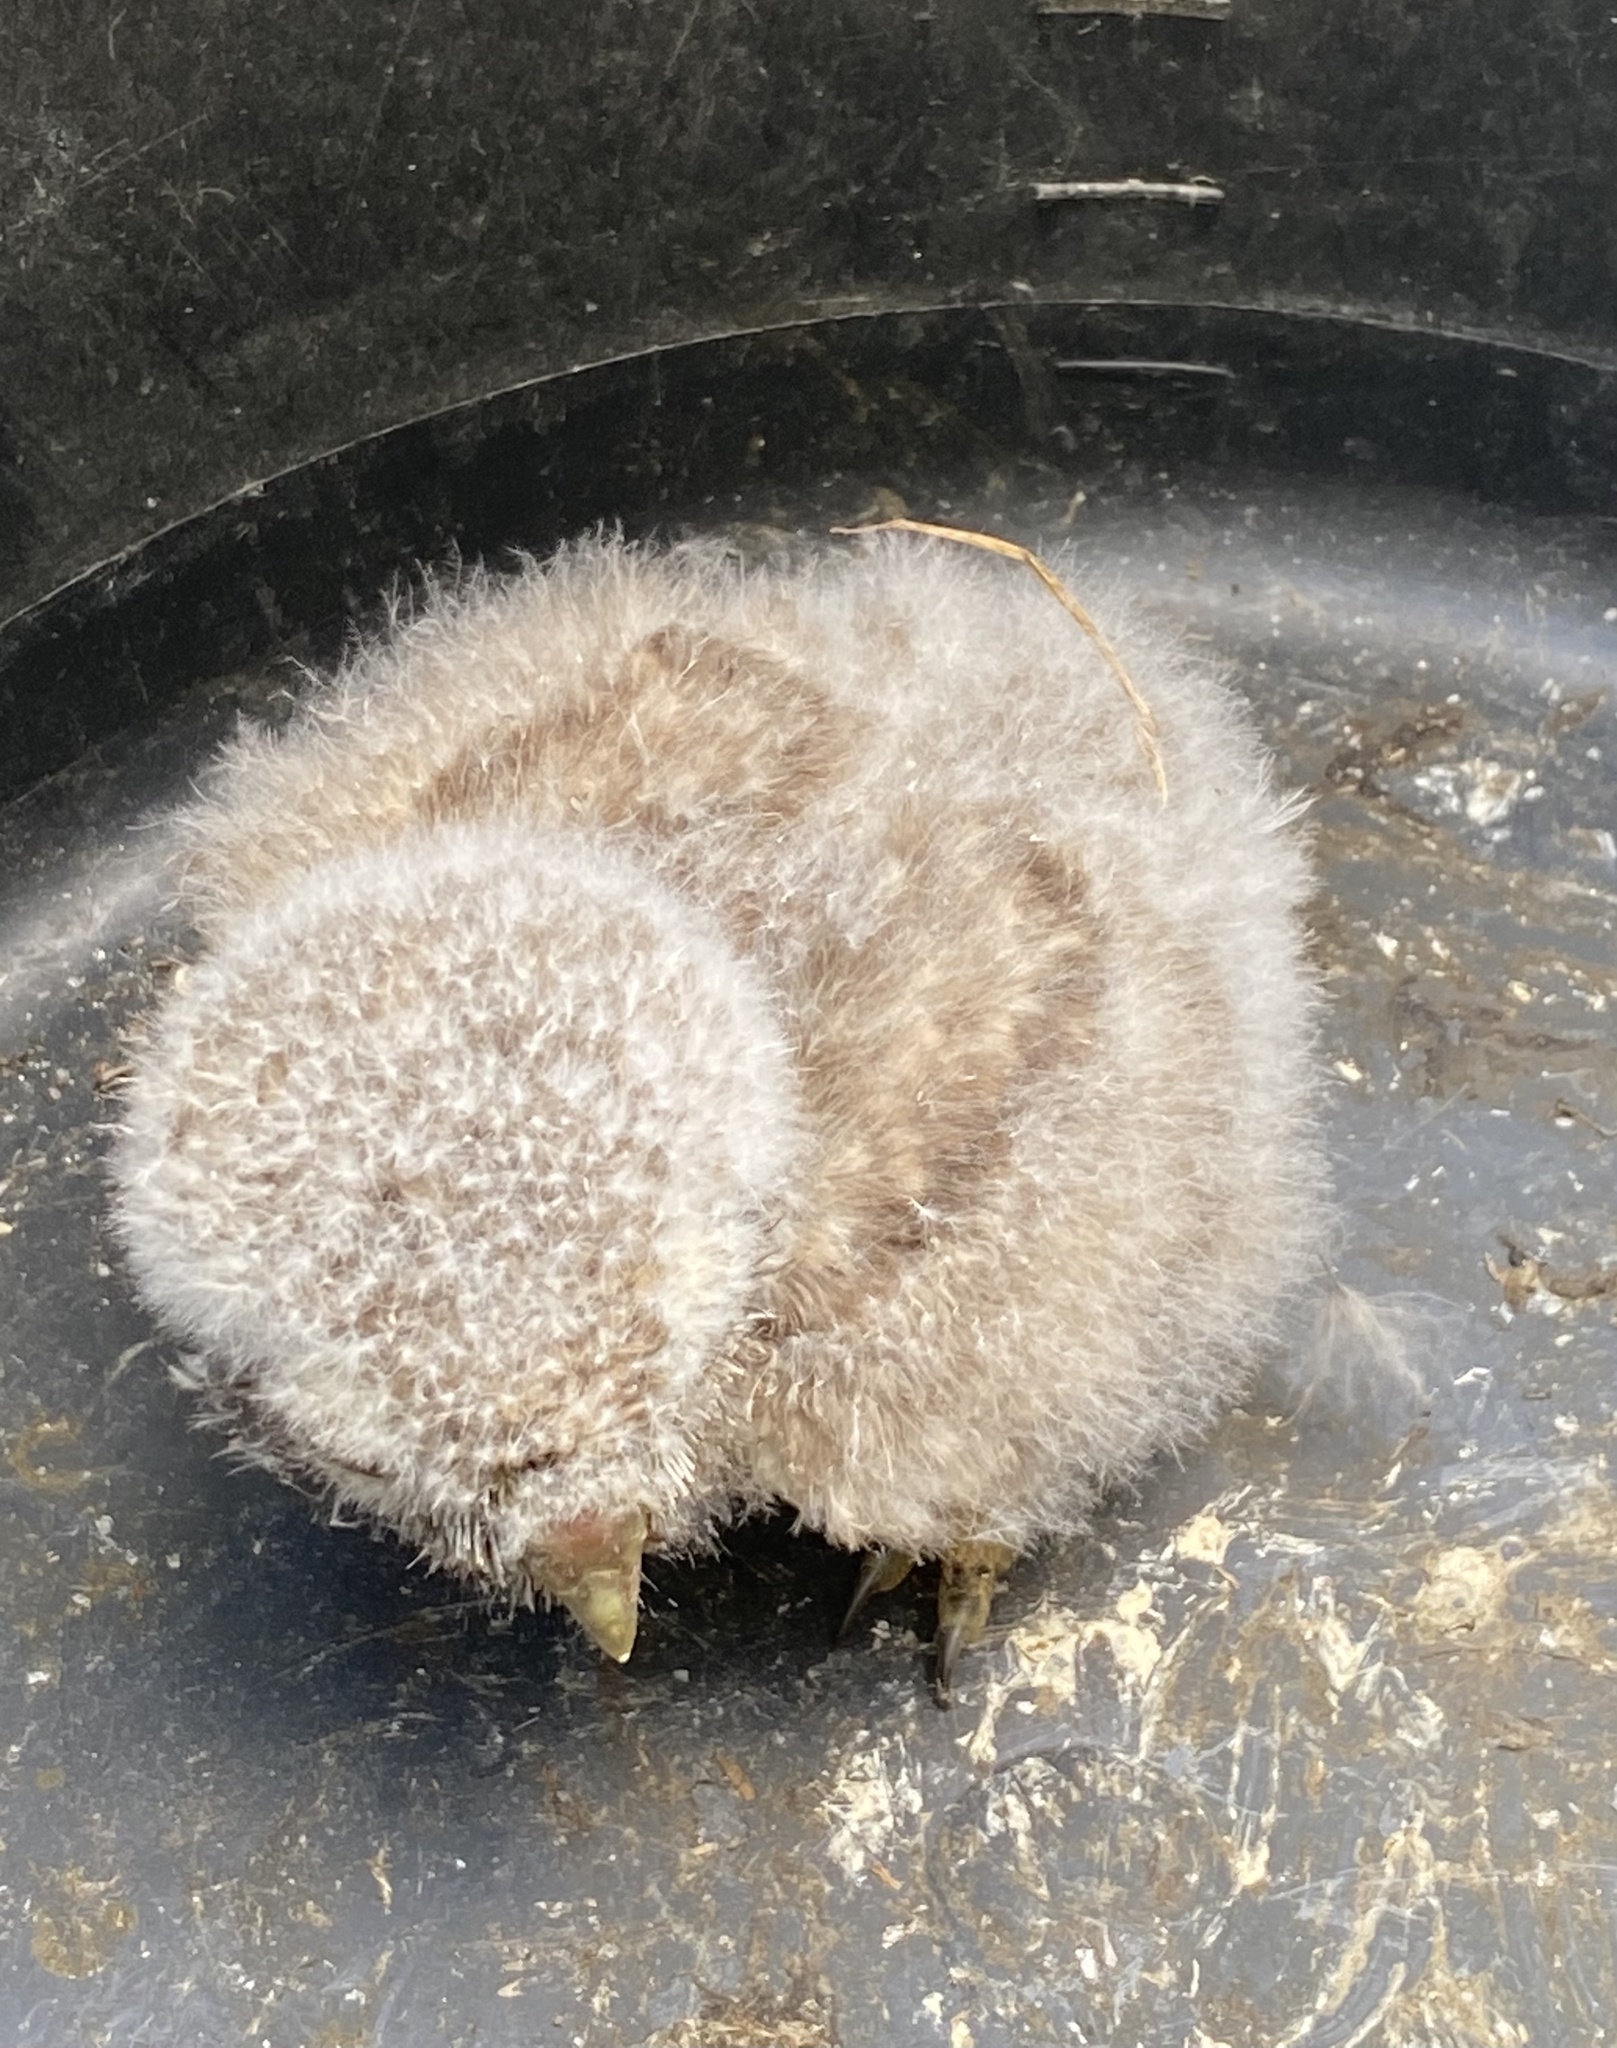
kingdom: Animalia
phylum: Chordata
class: Aves
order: Strigiformes
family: Strigidae
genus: Athene
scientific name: Athene noctua
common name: Little owl
